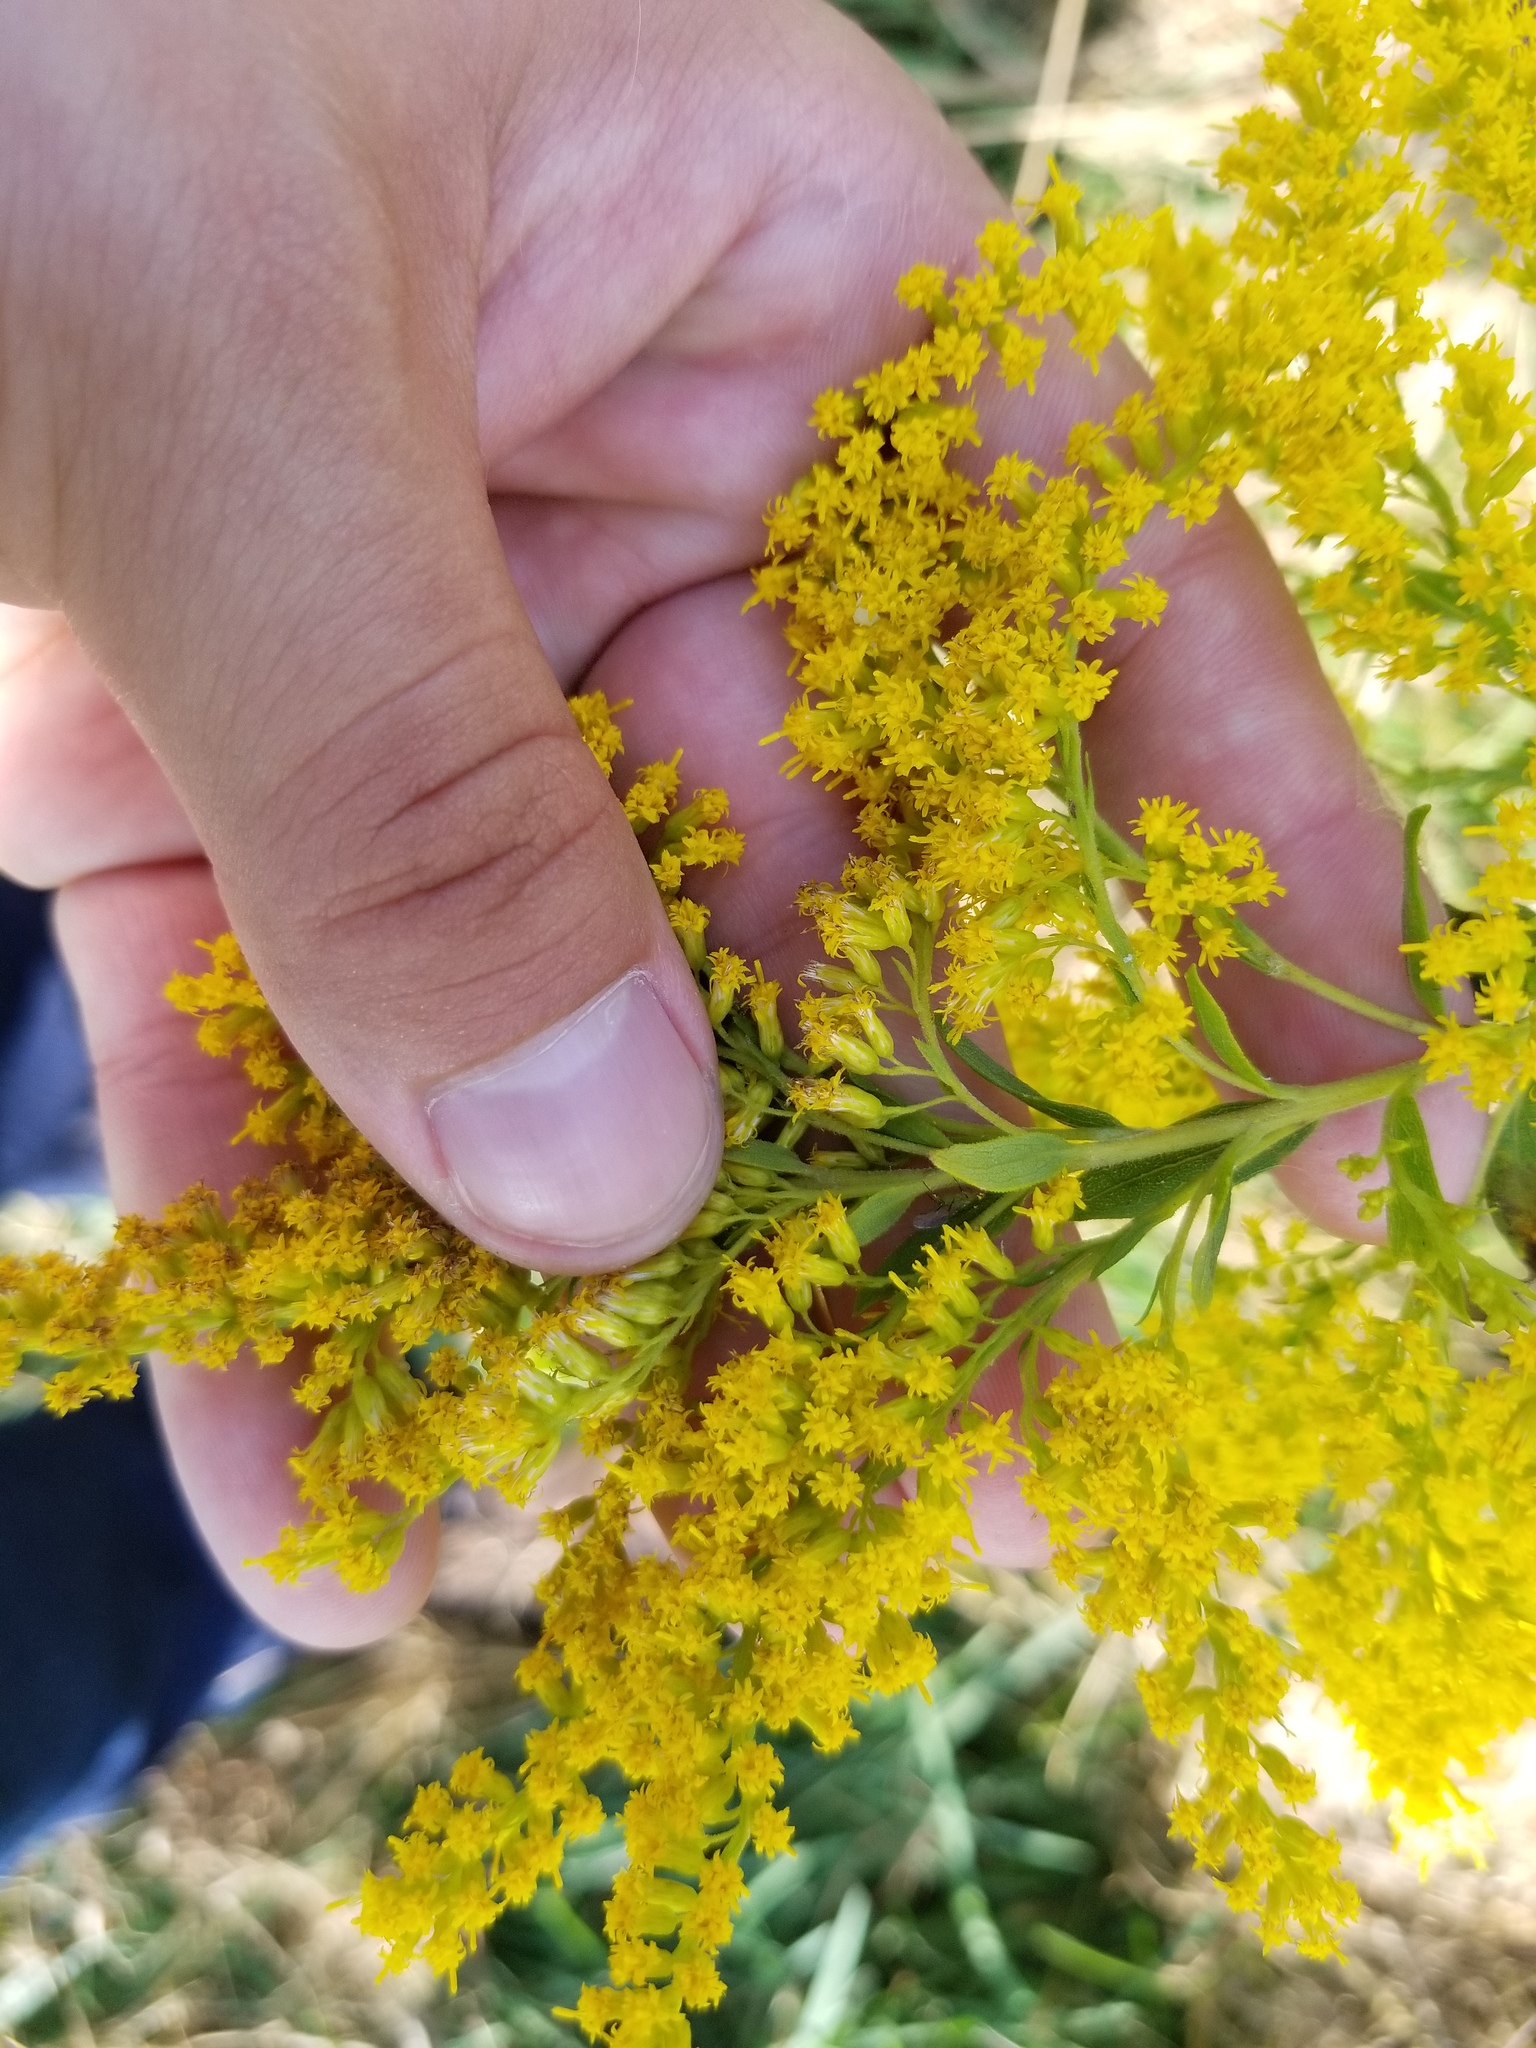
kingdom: Plantae
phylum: Tracheophyta
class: Magnoliopsida
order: Asterales
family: Asteraceae
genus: Solidago
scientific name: Solidago altissima
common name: Late goldenrod
